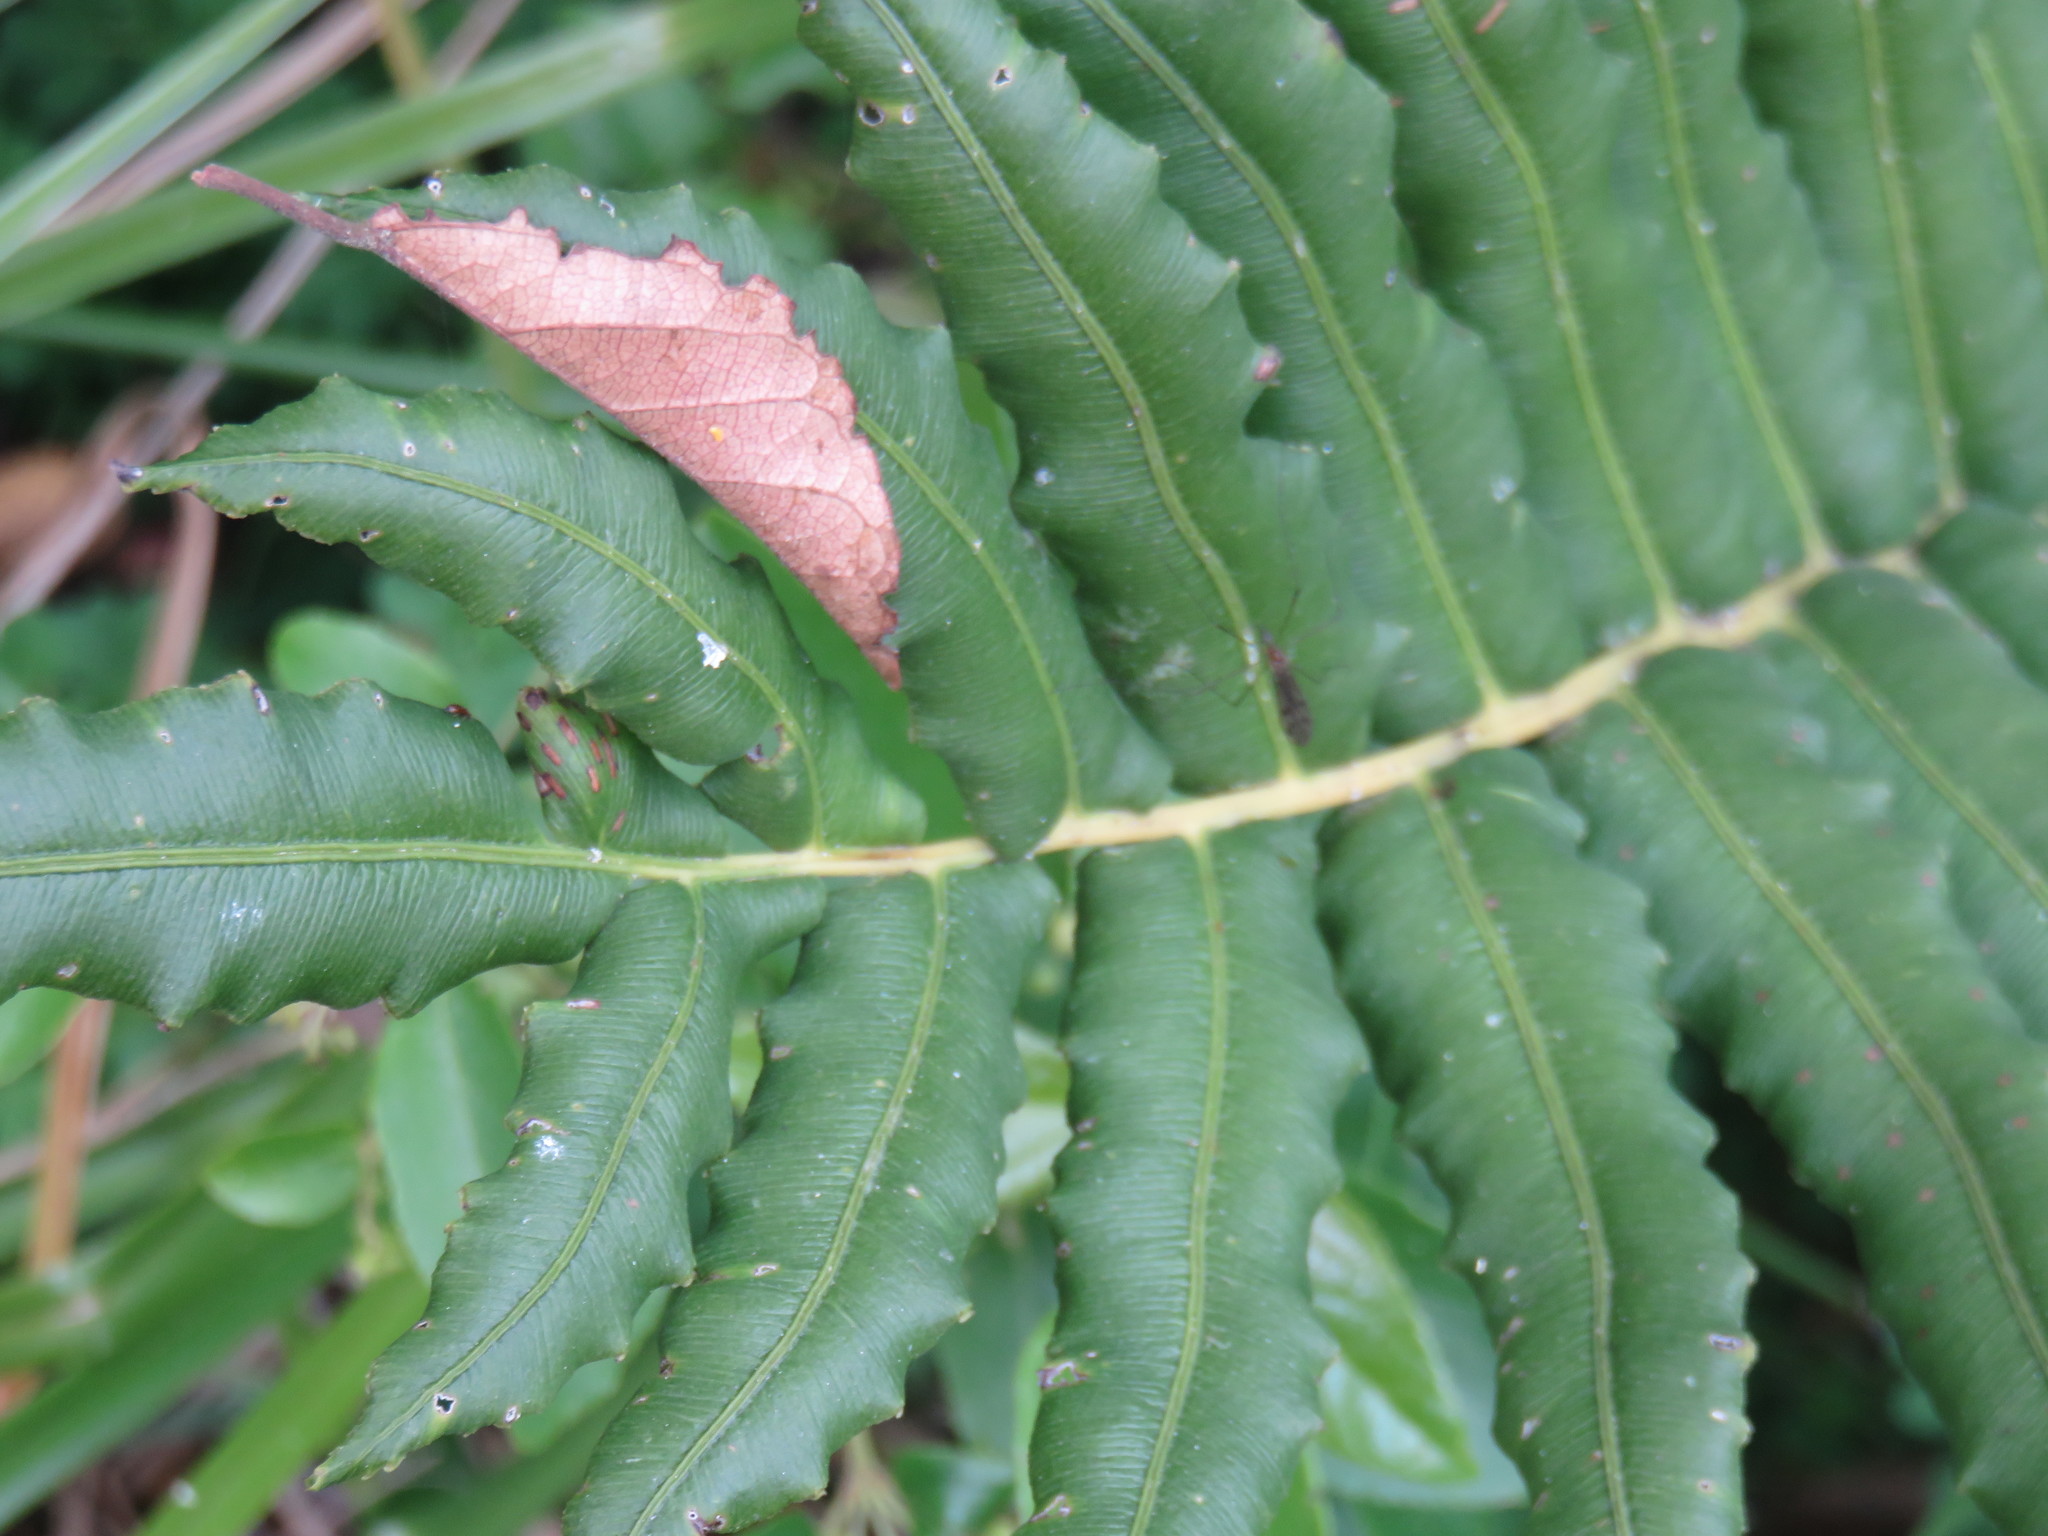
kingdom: Plantae
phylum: Tracheophyta
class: Polypodiopsida
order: Polypodiales
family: Blechnaceae
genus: Parablechnum
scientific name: Parablechnum chilense
